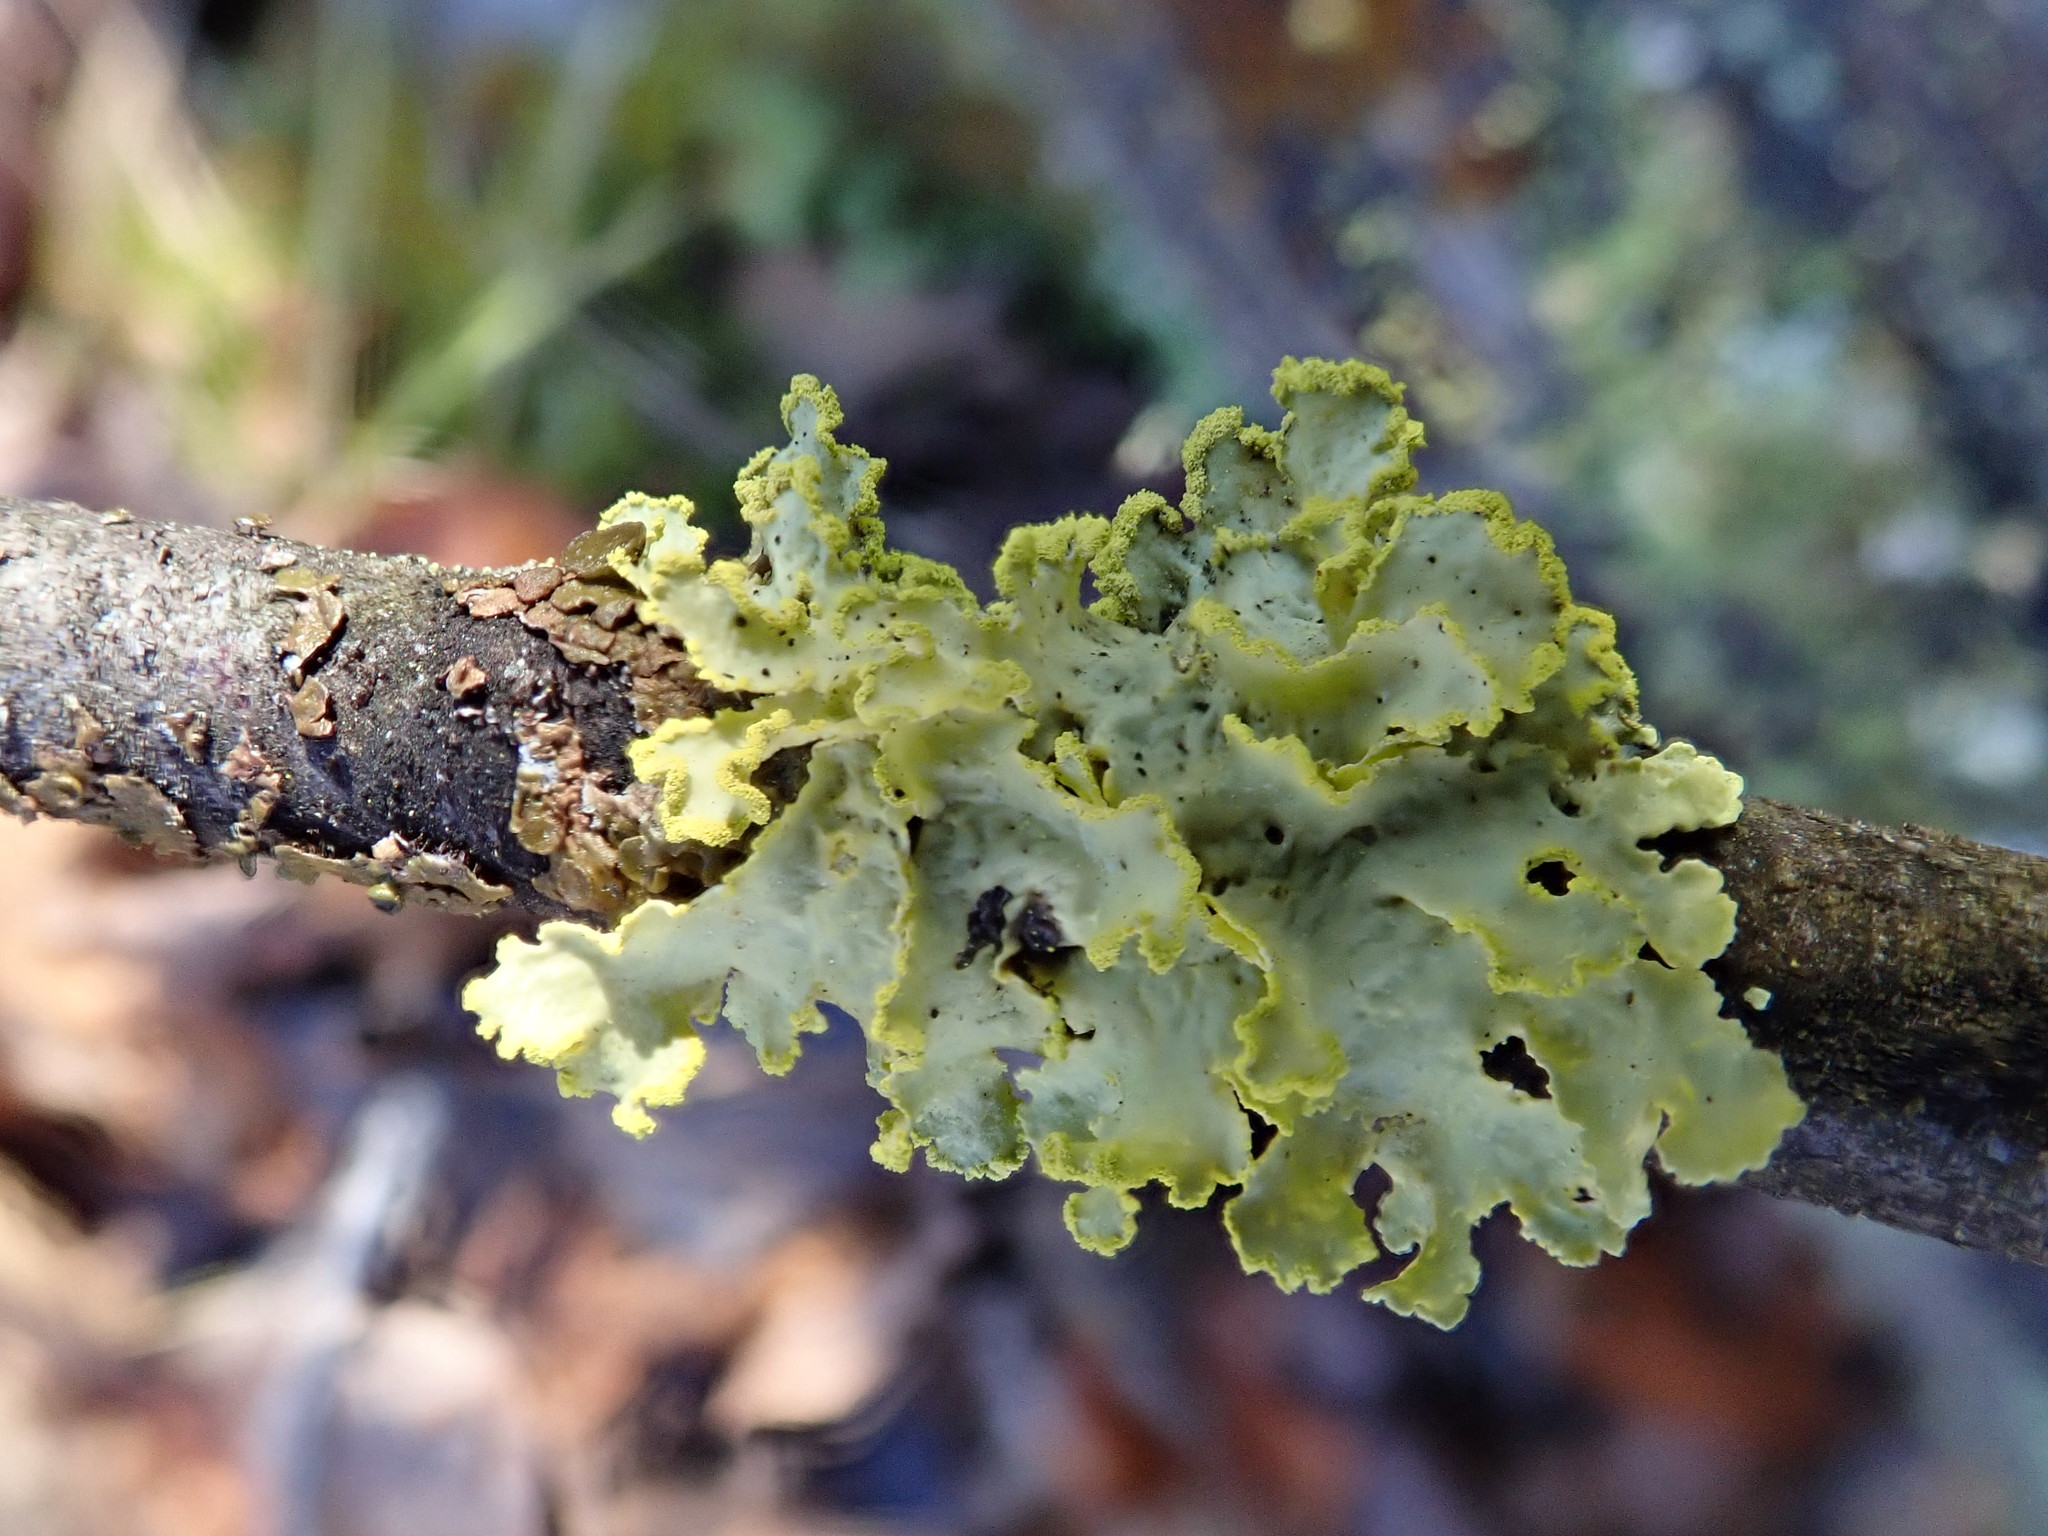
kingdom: Fungi
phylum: Ascomycota
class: Lecanoromycetes
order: Lecanorales
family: Parmeliaceae
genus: Vulpicida
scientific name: Vulpicida pinastri
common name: Powdered sunshine lichen
